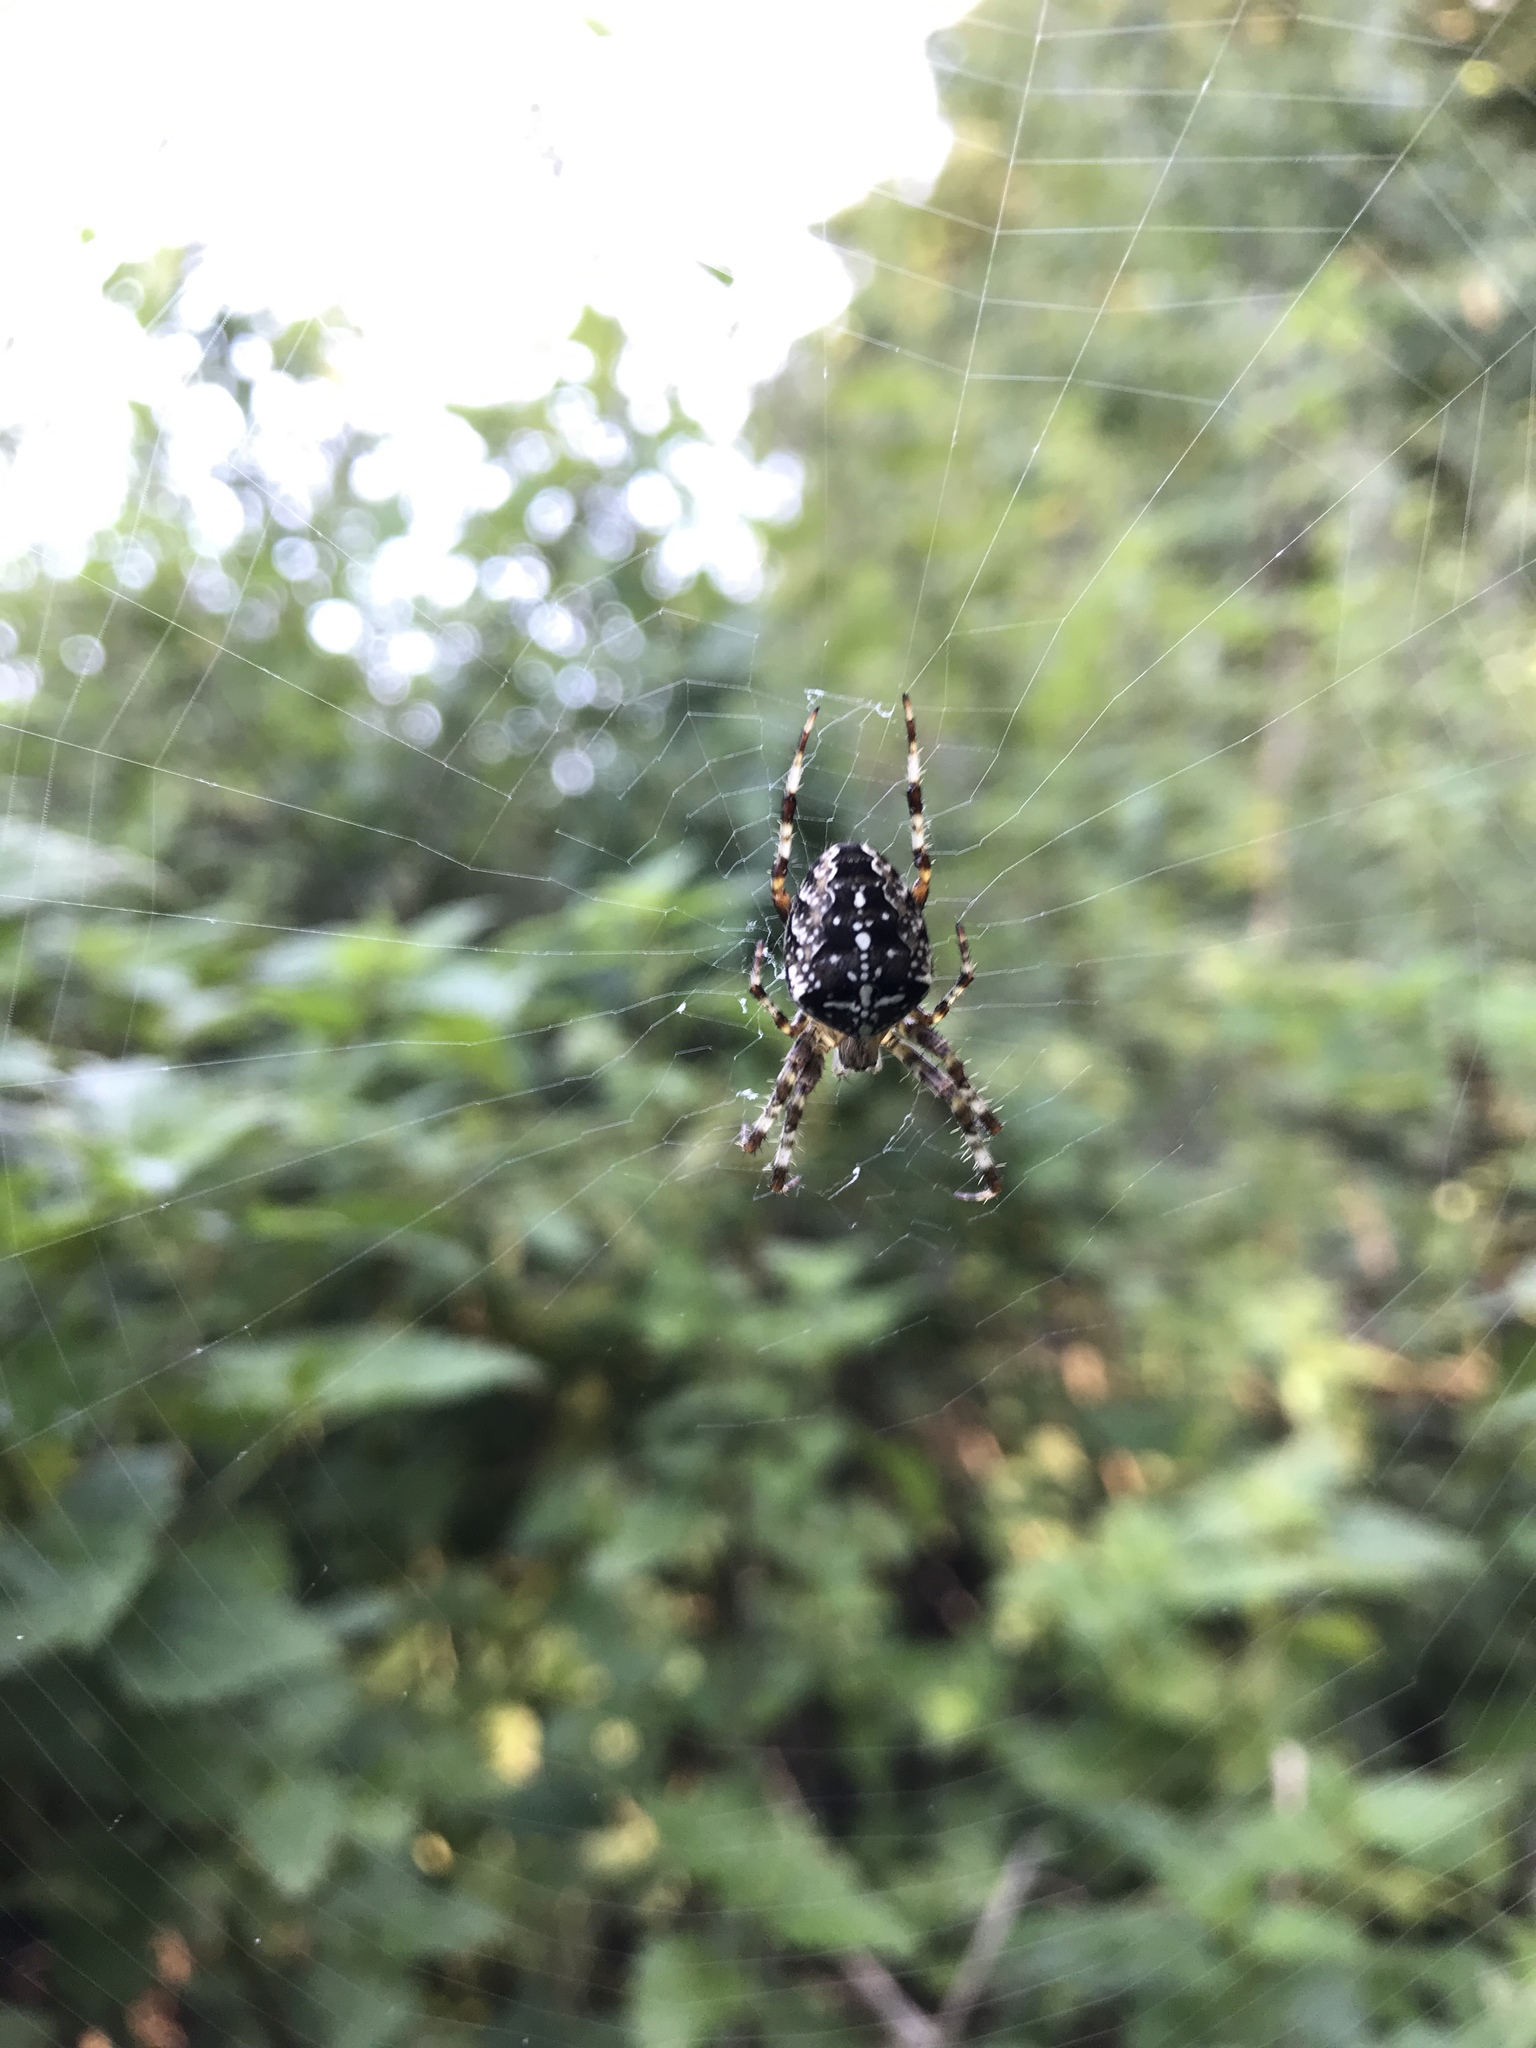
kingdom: Animalia
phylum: Arthropoda
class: Arachnida
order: Araneae
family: Araneidae
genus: Araneus
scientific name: Araneus diadematus
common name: Cross orbweaver
